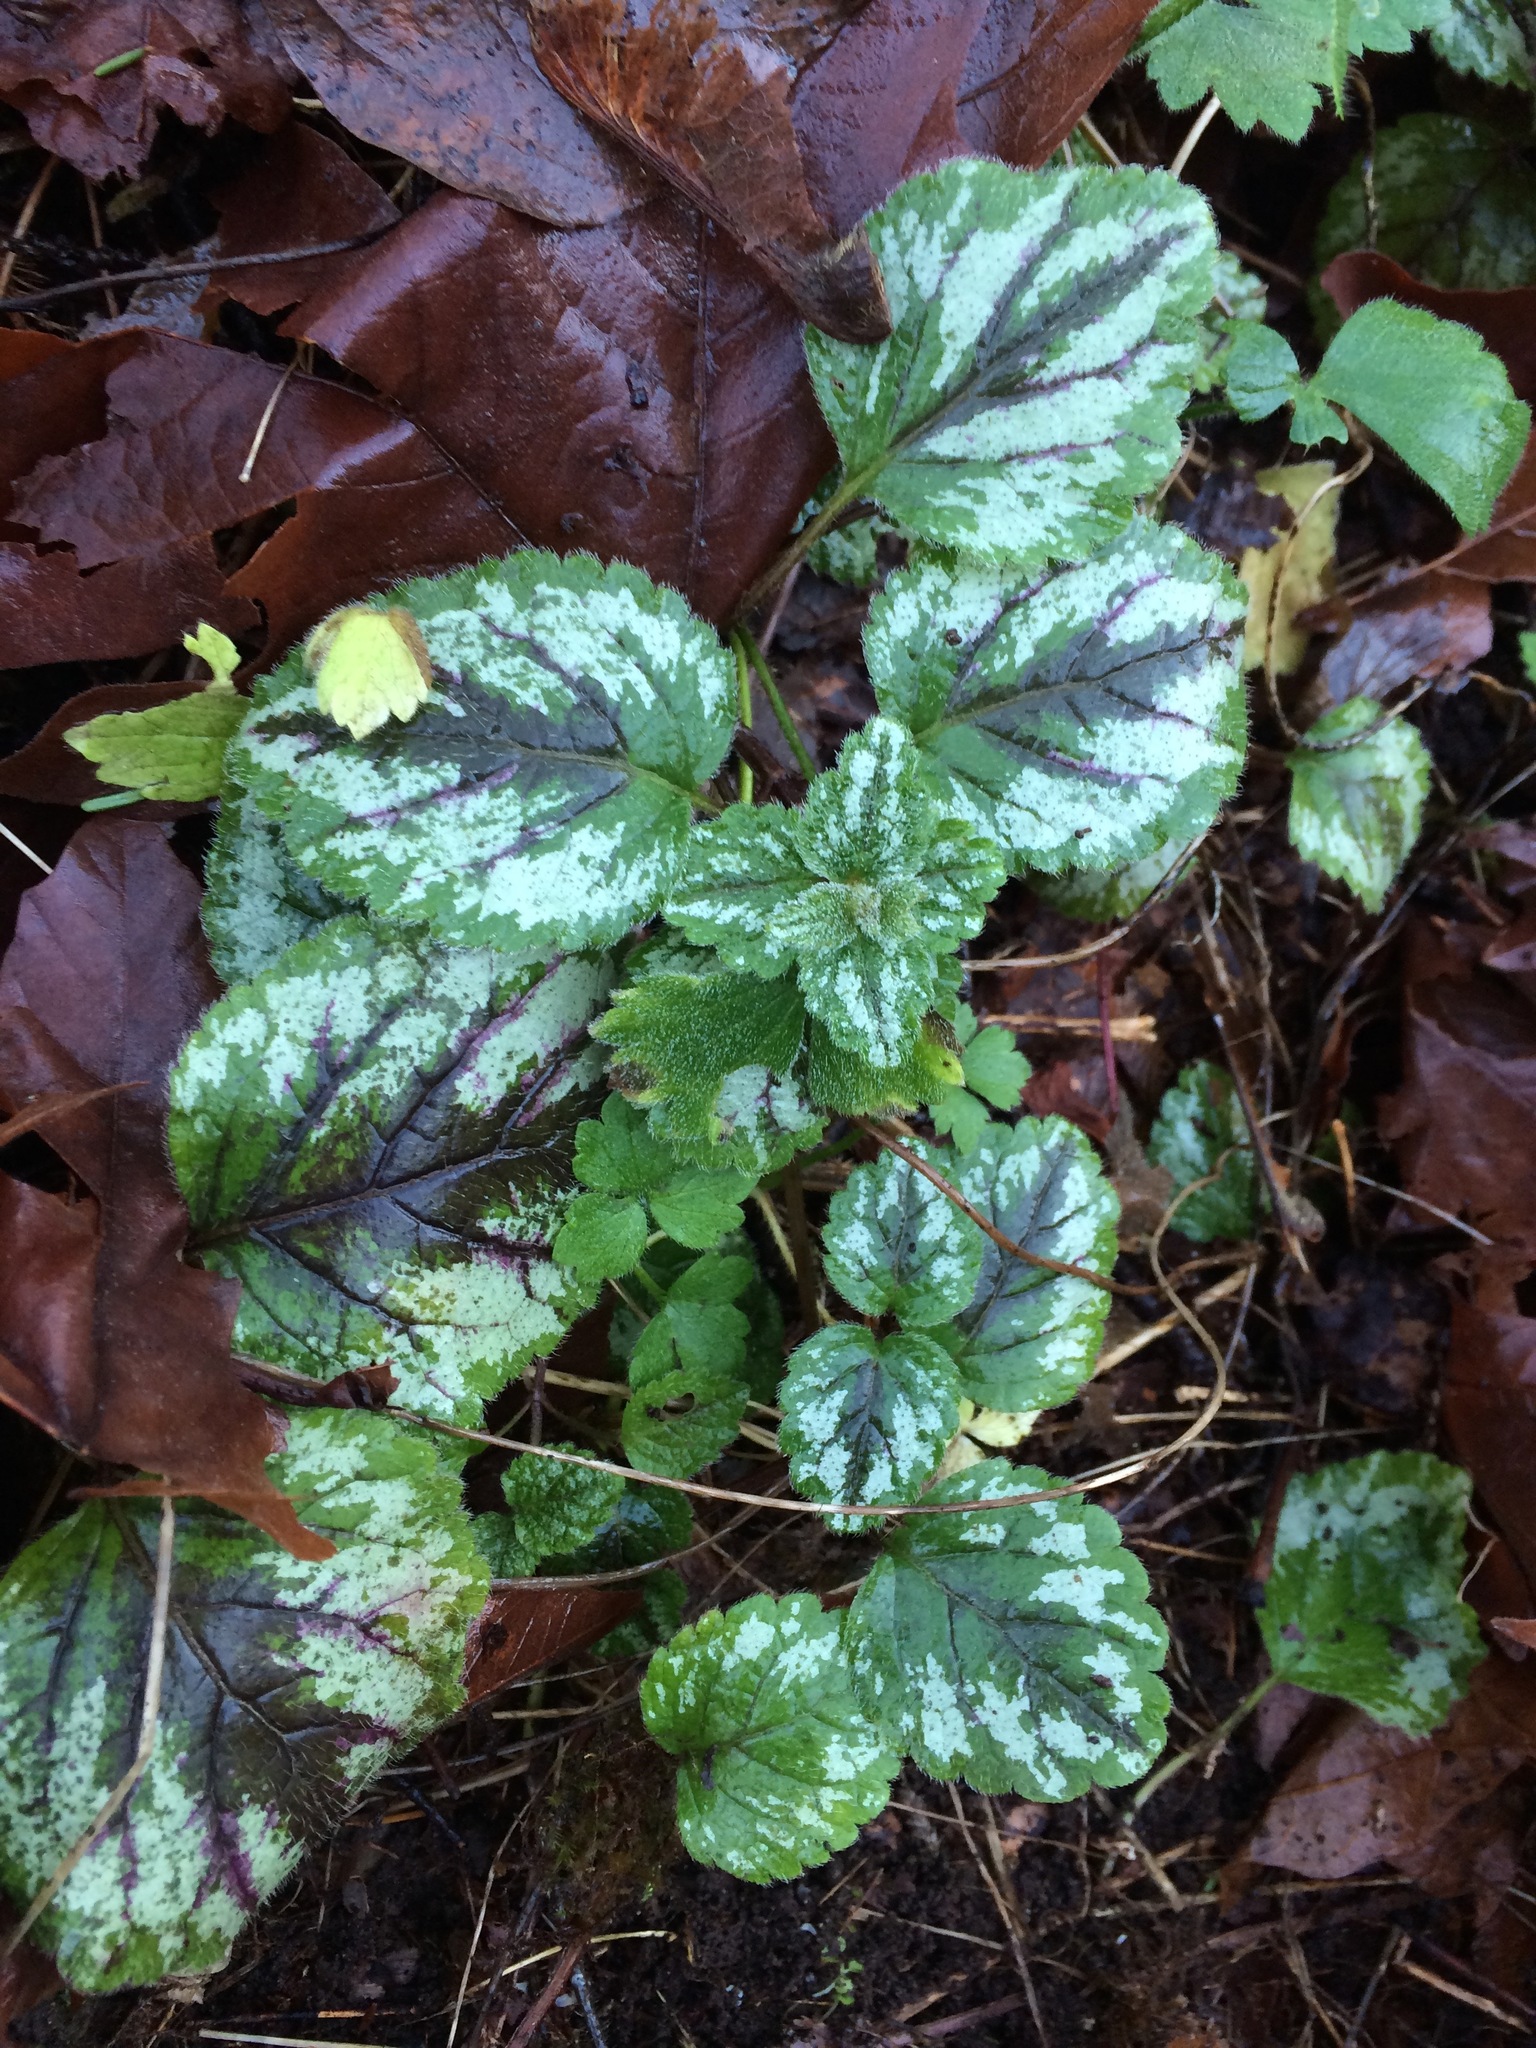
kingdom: Plantae
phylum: Tracheophyta
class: Magnoliopsida
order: Lamiales
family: Lamiaceae
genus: Lamium
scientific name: Lamium galeobdolon
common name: Yellow archangel
